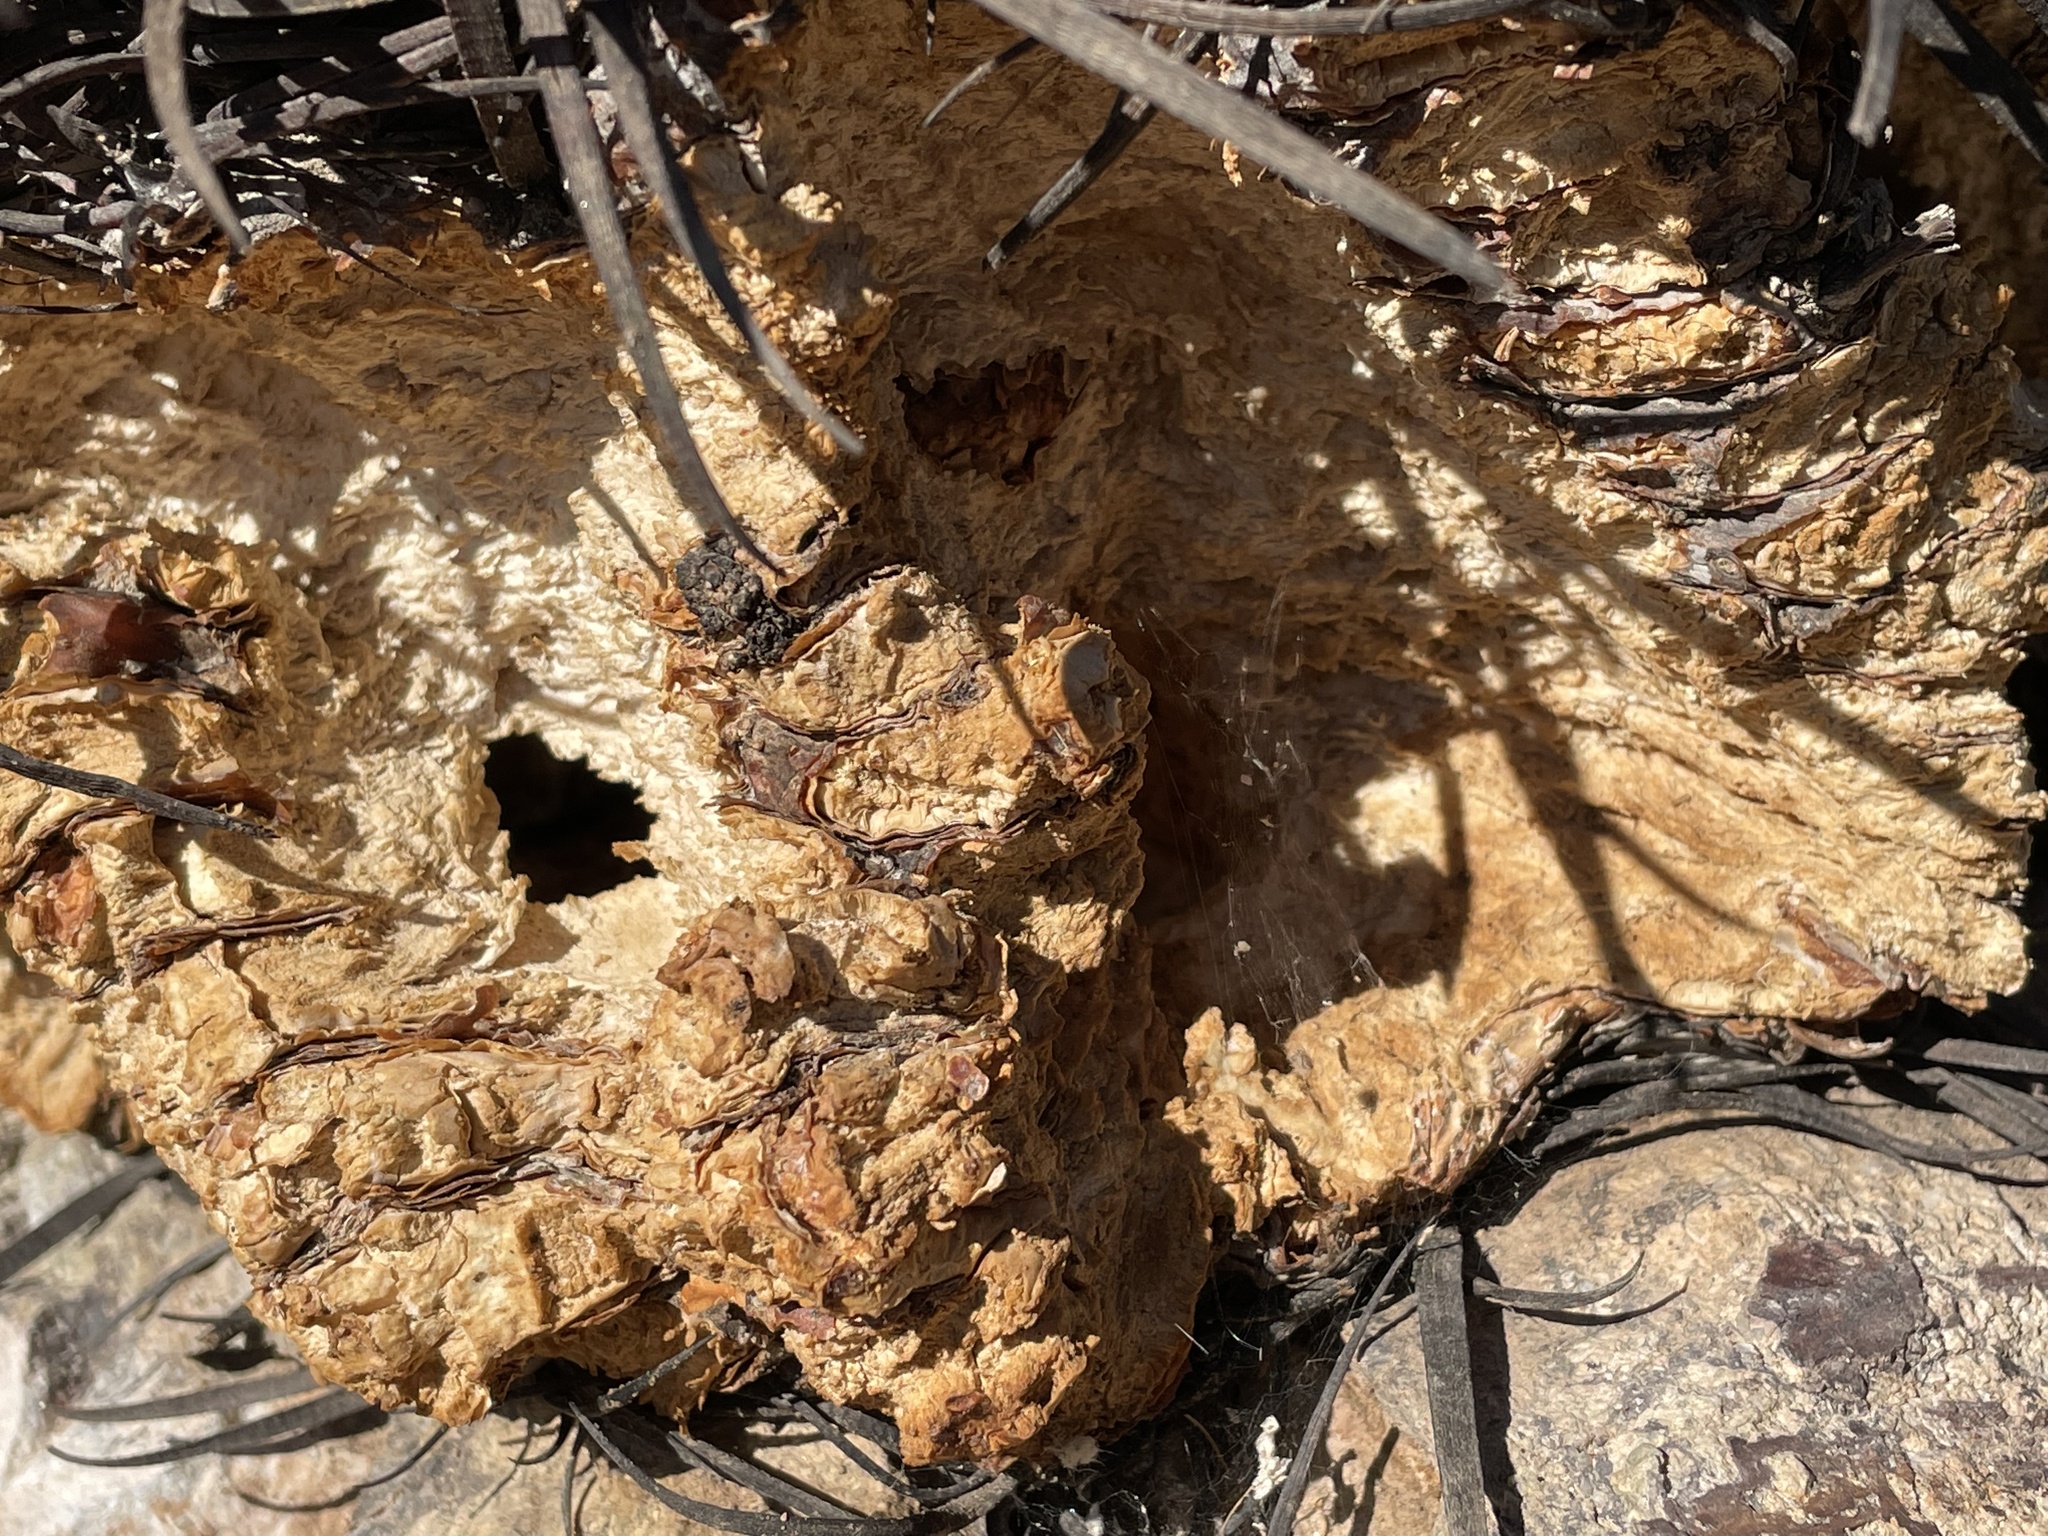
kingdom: Plantae
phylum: Tracheophyta
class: Magnoliopsida
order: Caryophyllales
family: Cactaceae
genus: Ferocactus
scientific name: Ferocactus cylindraceus
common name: California barrel cactus
